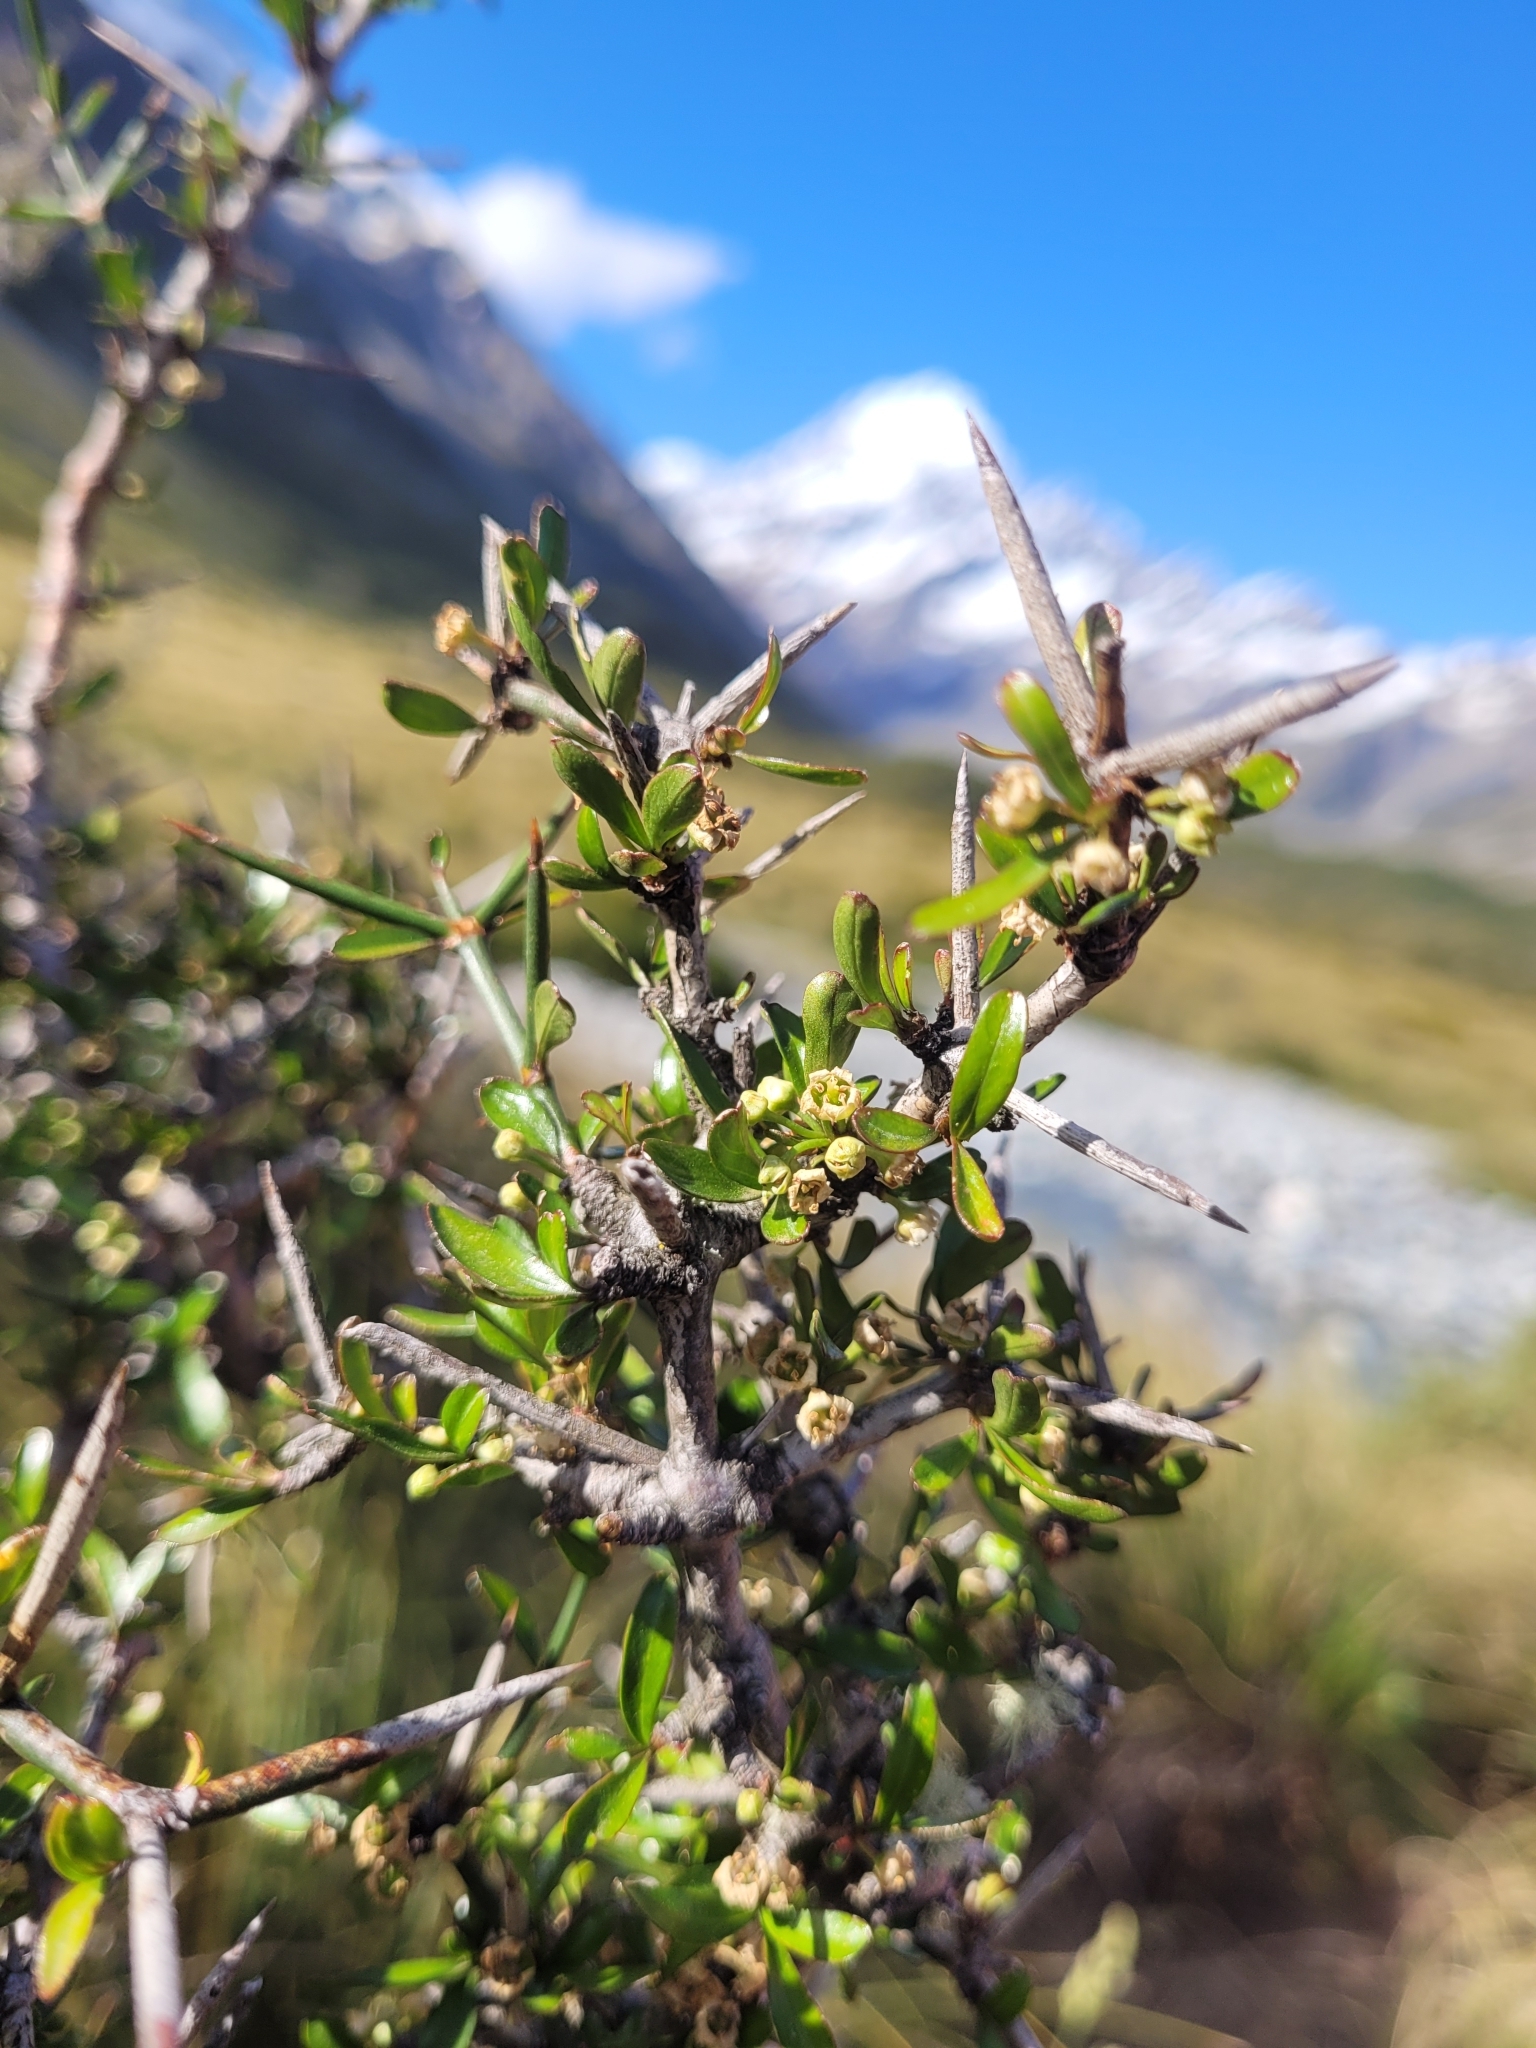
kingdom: Plantae
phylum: Tracheophyta
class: Magnoliopsida
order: Rosales
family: Rhamnaceae
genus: Discaria
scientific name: Discaria toumatou
